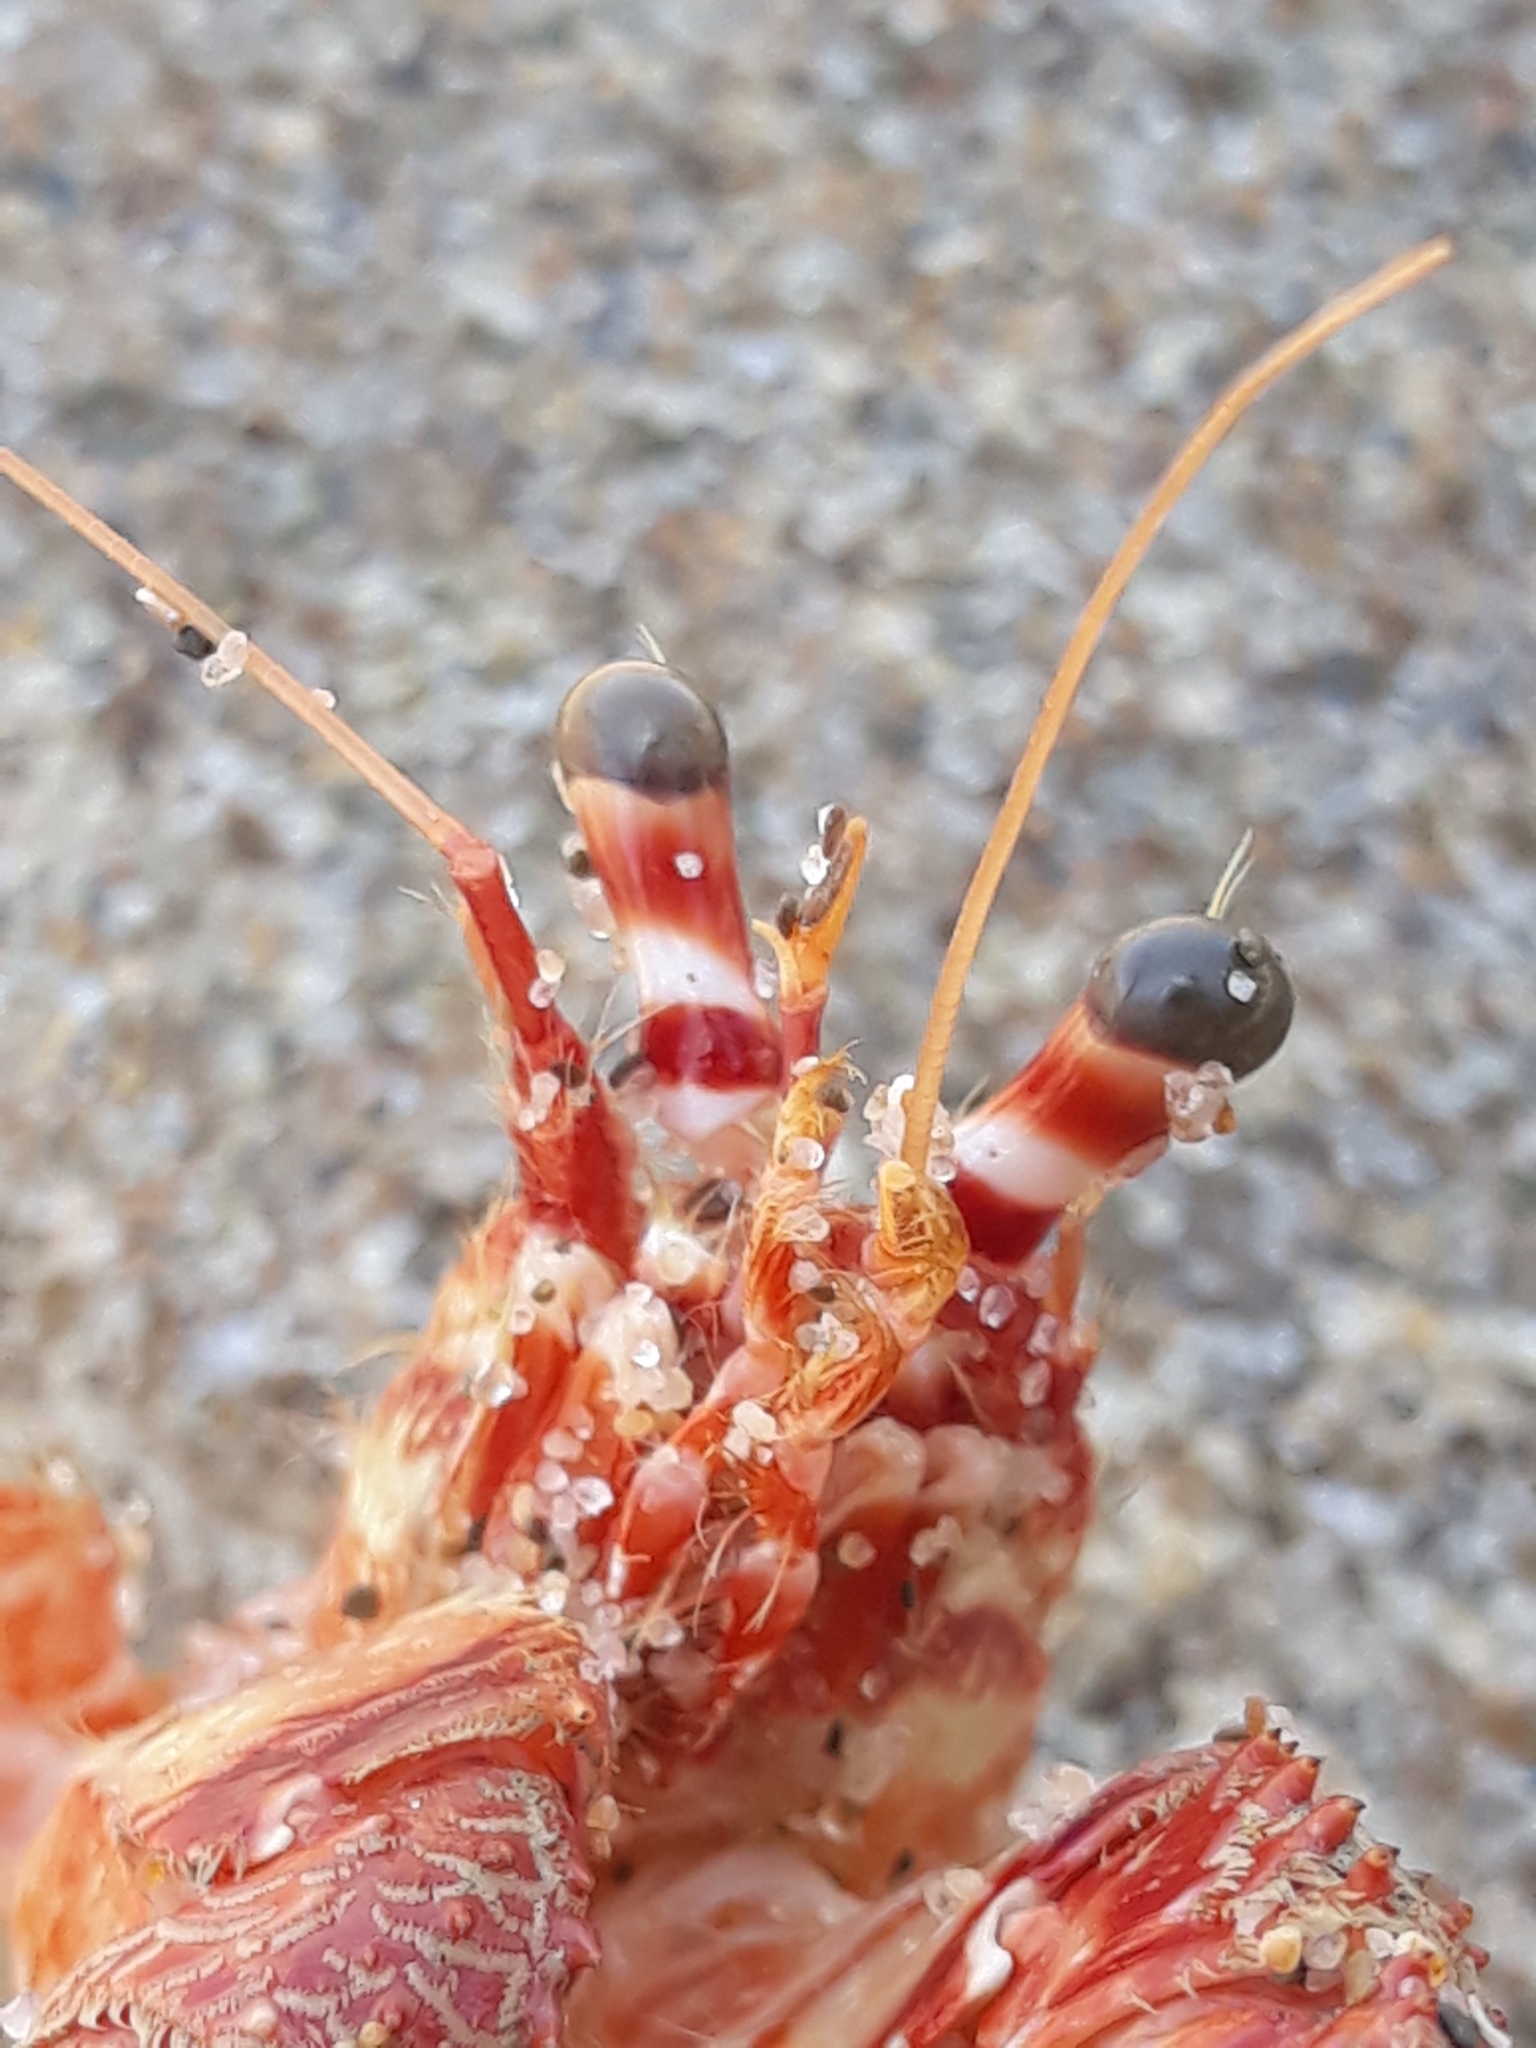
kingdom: Animalia
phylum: Arthropoda
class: Malacostraca
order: Decapoda
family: Diogenidae
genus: Dardanus
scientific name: Dardanus arrosor
